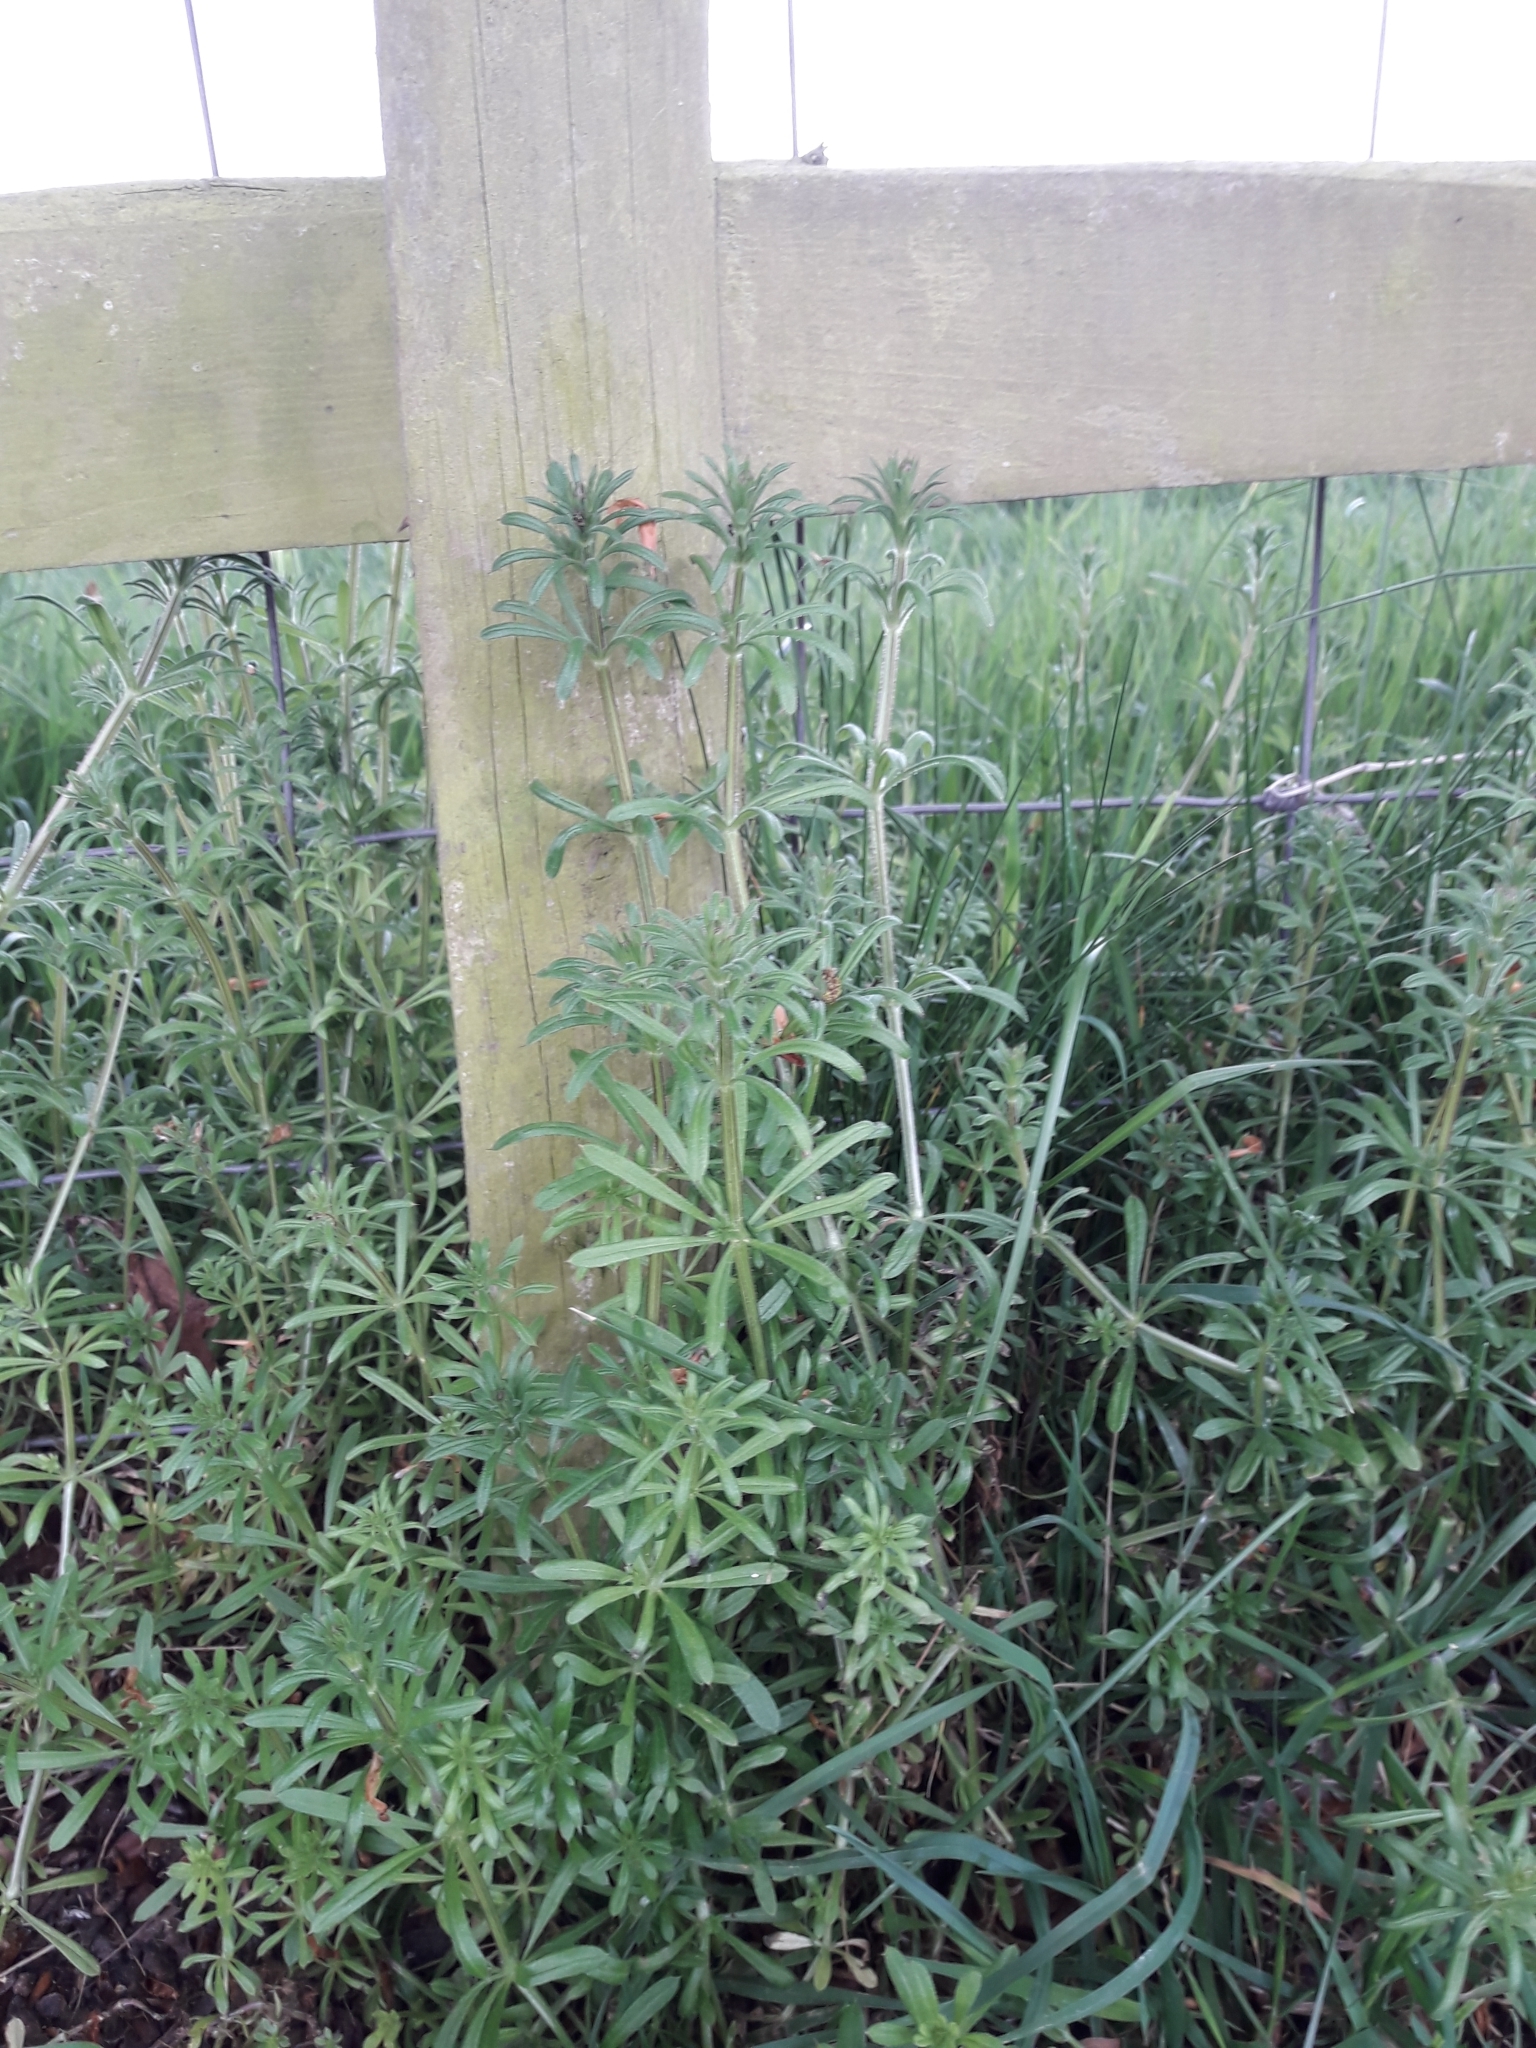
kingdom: Plantae
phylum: Tracheophyta
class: Magnoliopsida
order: Gentianales
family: Rubiaceae
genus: Galium
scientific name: Galium aparine
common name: Cleavers
